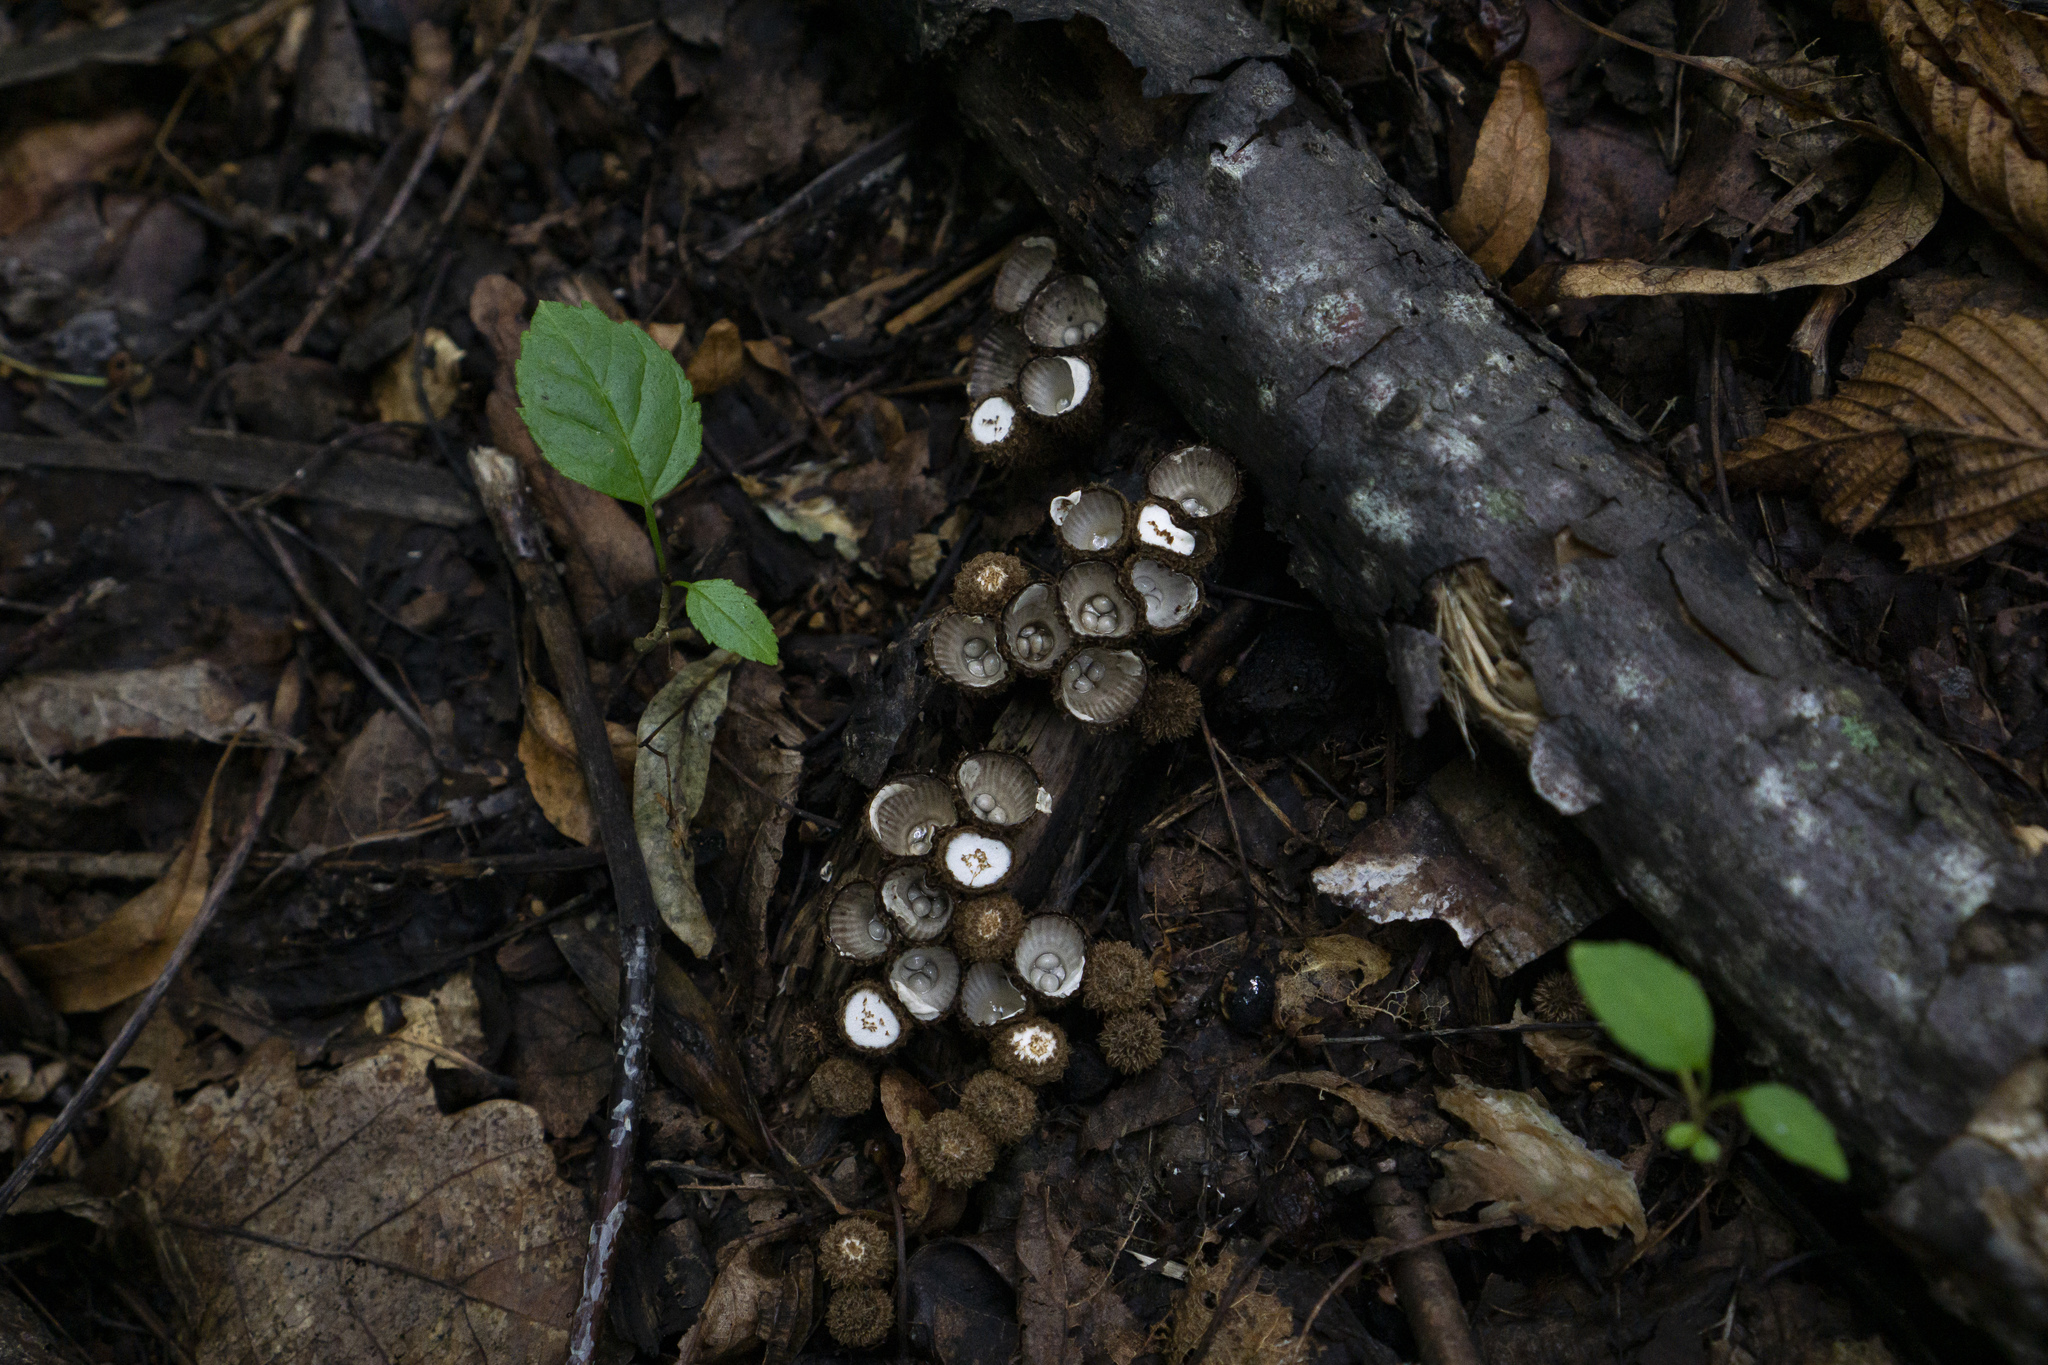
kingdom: Fungi
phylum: Basidiomycota
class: Agaricomycetes
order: Agaricales
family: Agaricaceae
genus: Cyathus
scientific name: Cyathus striatus
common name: Fluted bird's nest
